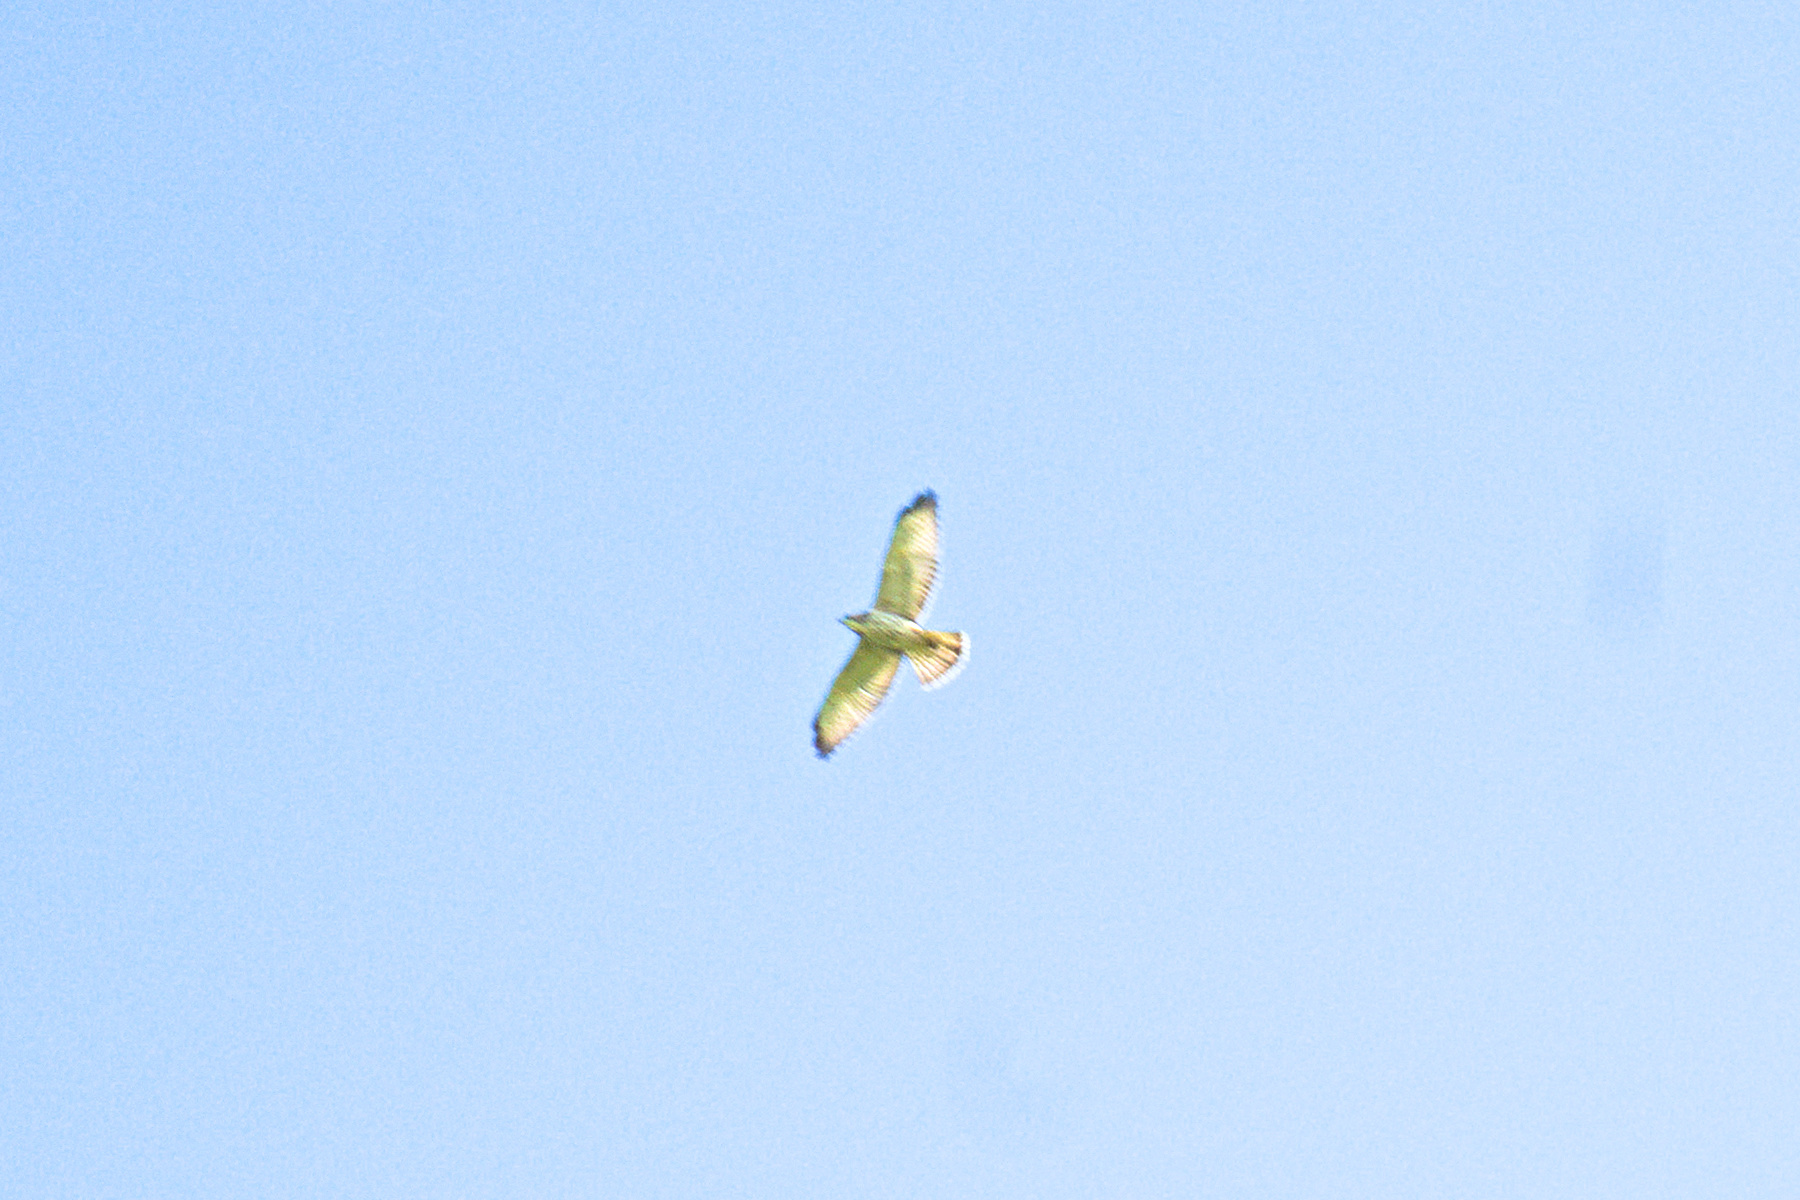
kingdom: Animalia
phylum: Chordata
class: Aves
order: Accipitriformes
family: Accipitridae
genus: Buteo
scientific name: Buteo platypterus
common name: Broad-winged hawk
